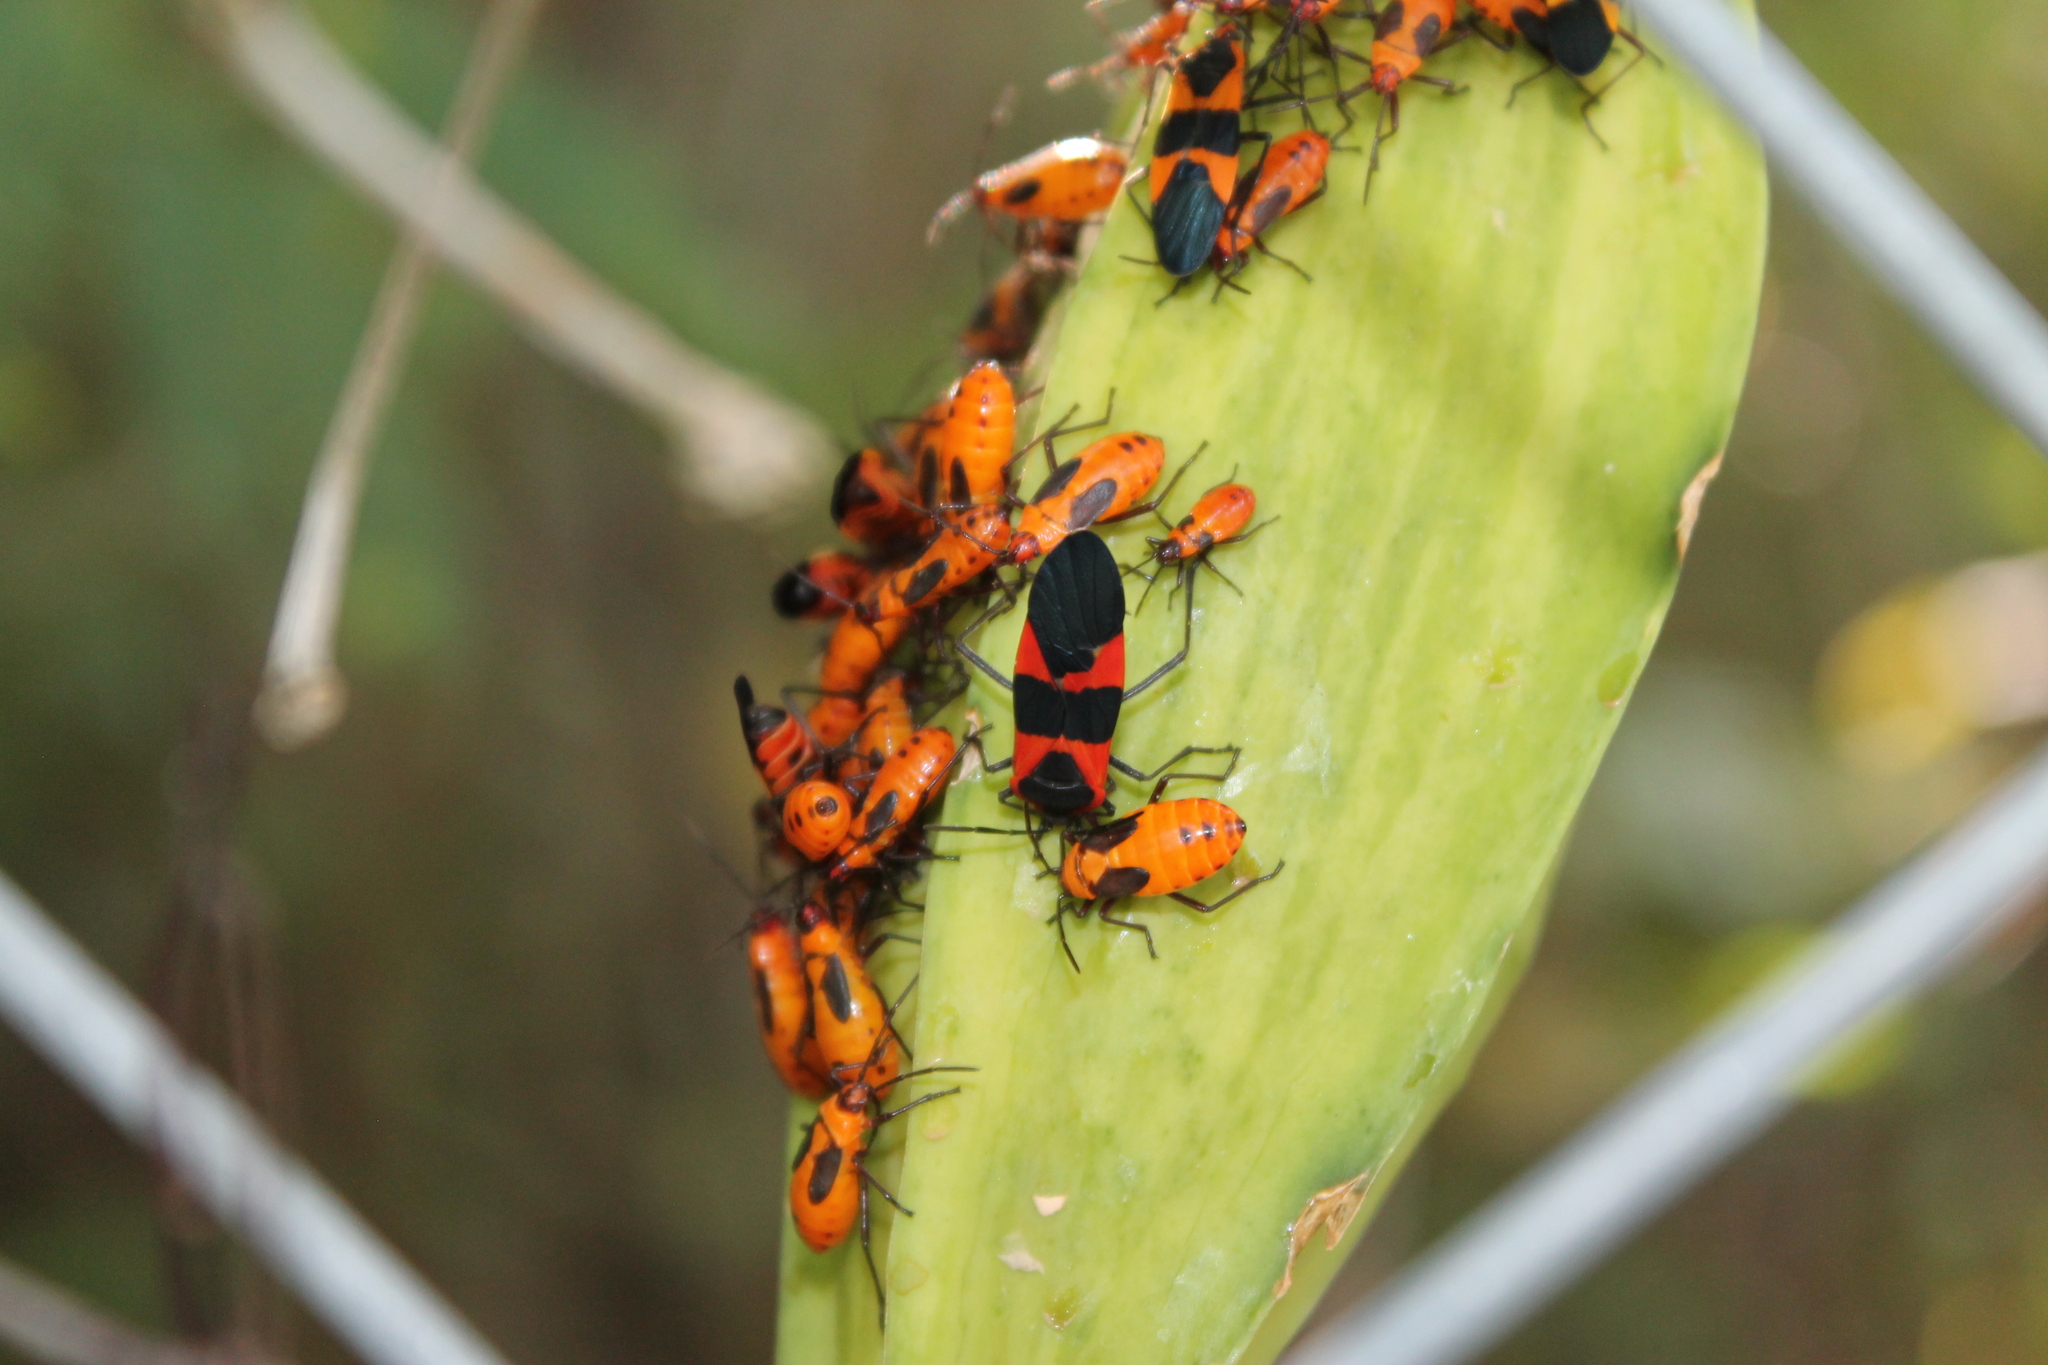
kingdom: Animalia
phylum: Arthropoda
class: Insecta
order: Hemiptera
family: Lygaeidae
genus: Oncopeltus
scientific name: Oncopeltus fasciatus
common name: Large milkweed bug
